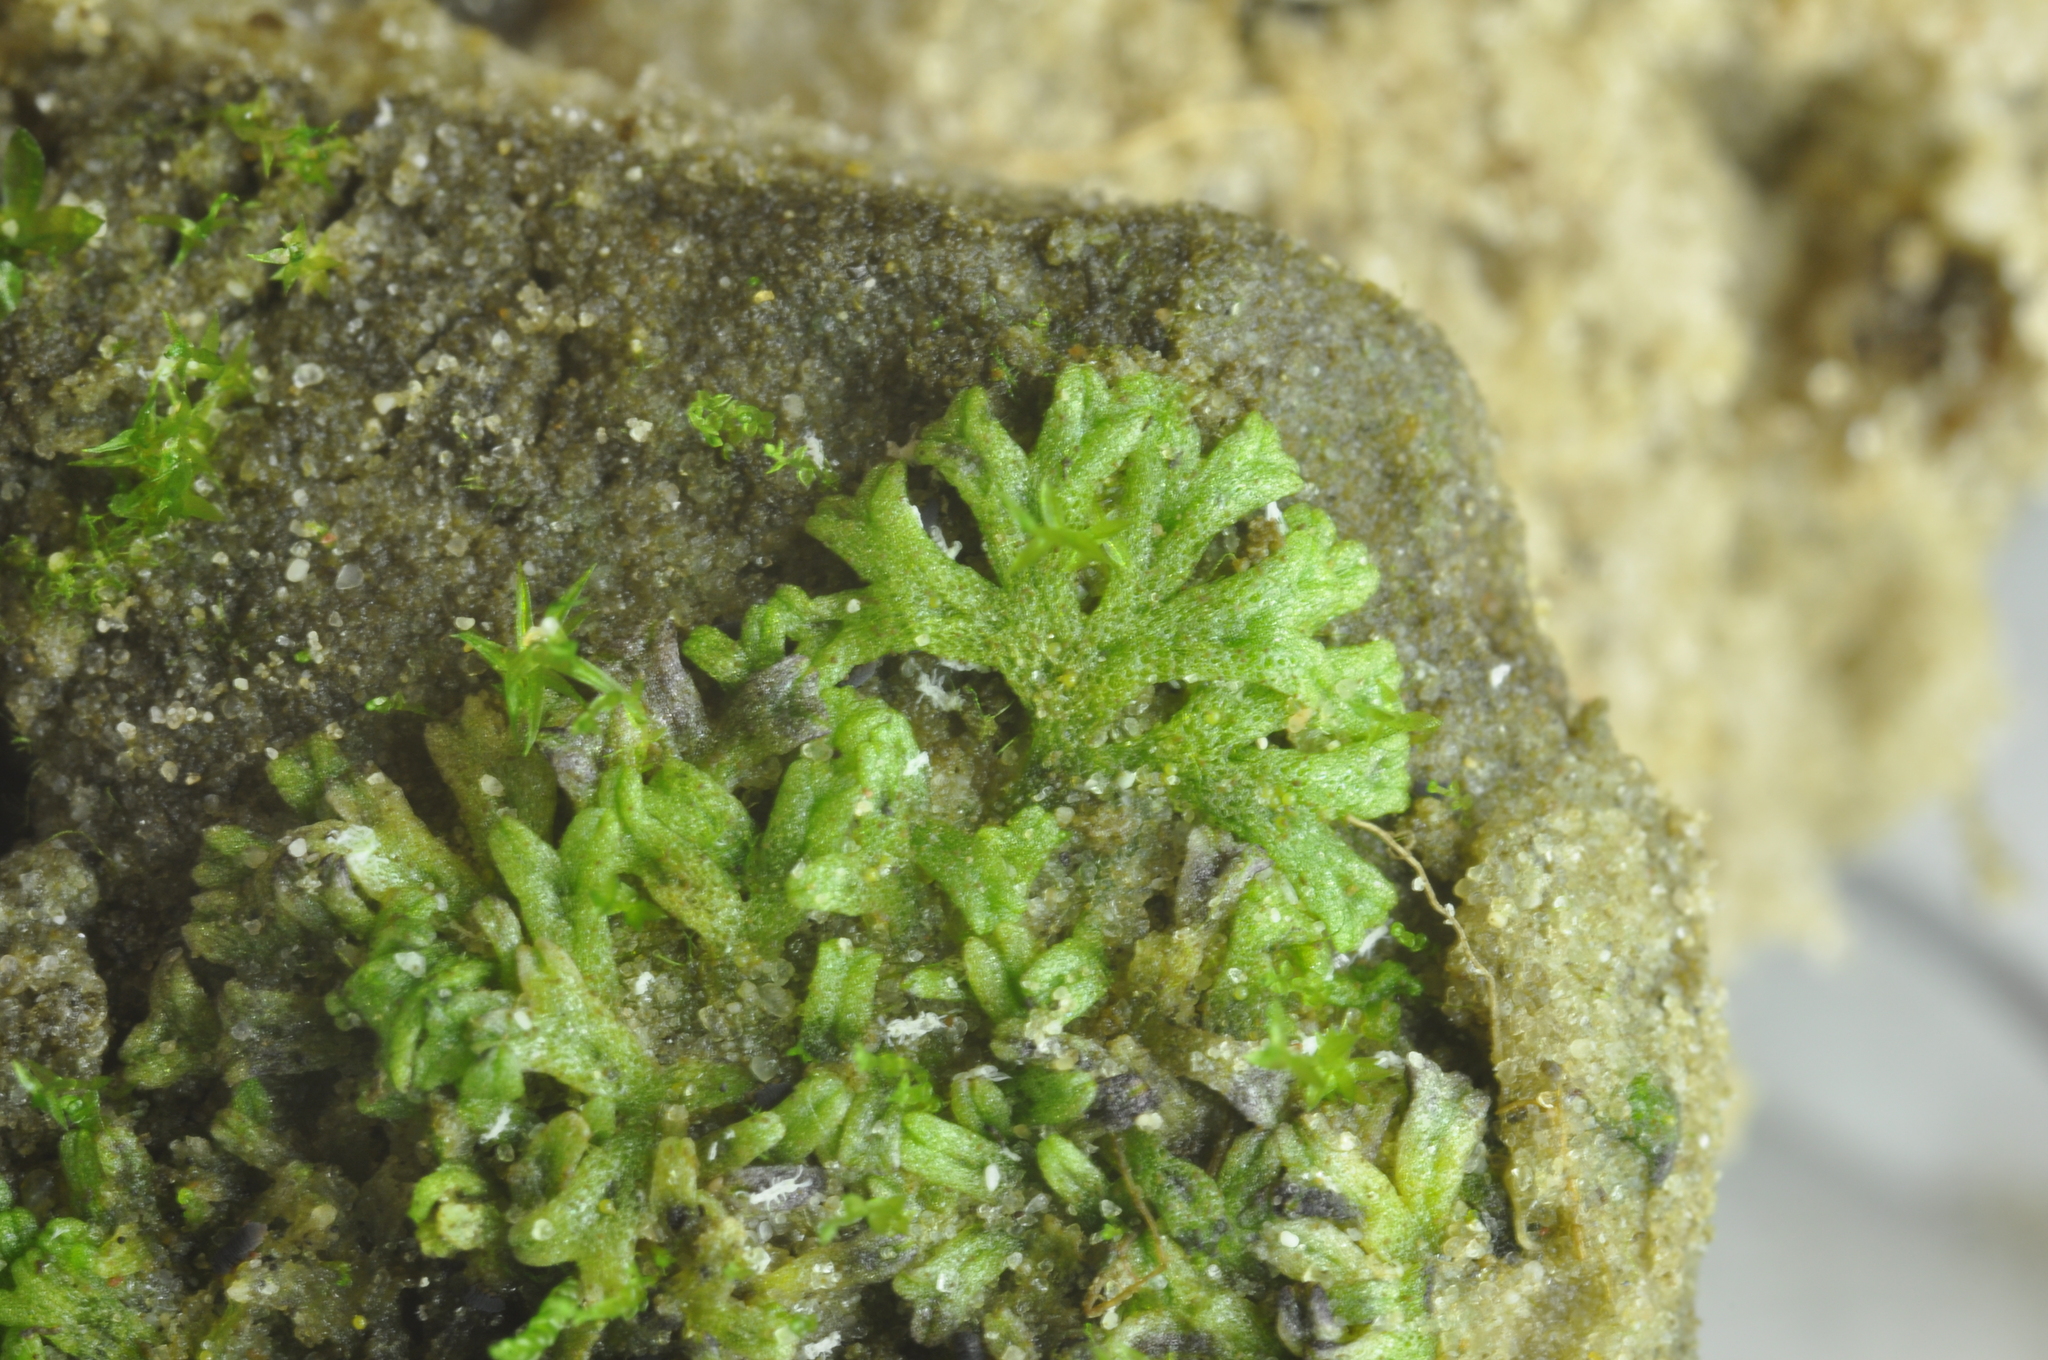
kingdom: Plantae
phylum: Marchantiophyta
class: Marchantiopsida
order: Marchantiales
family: Ricciaceae
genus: Riccia
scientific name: Riccia huebeneriana
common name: Violet crystalwort
